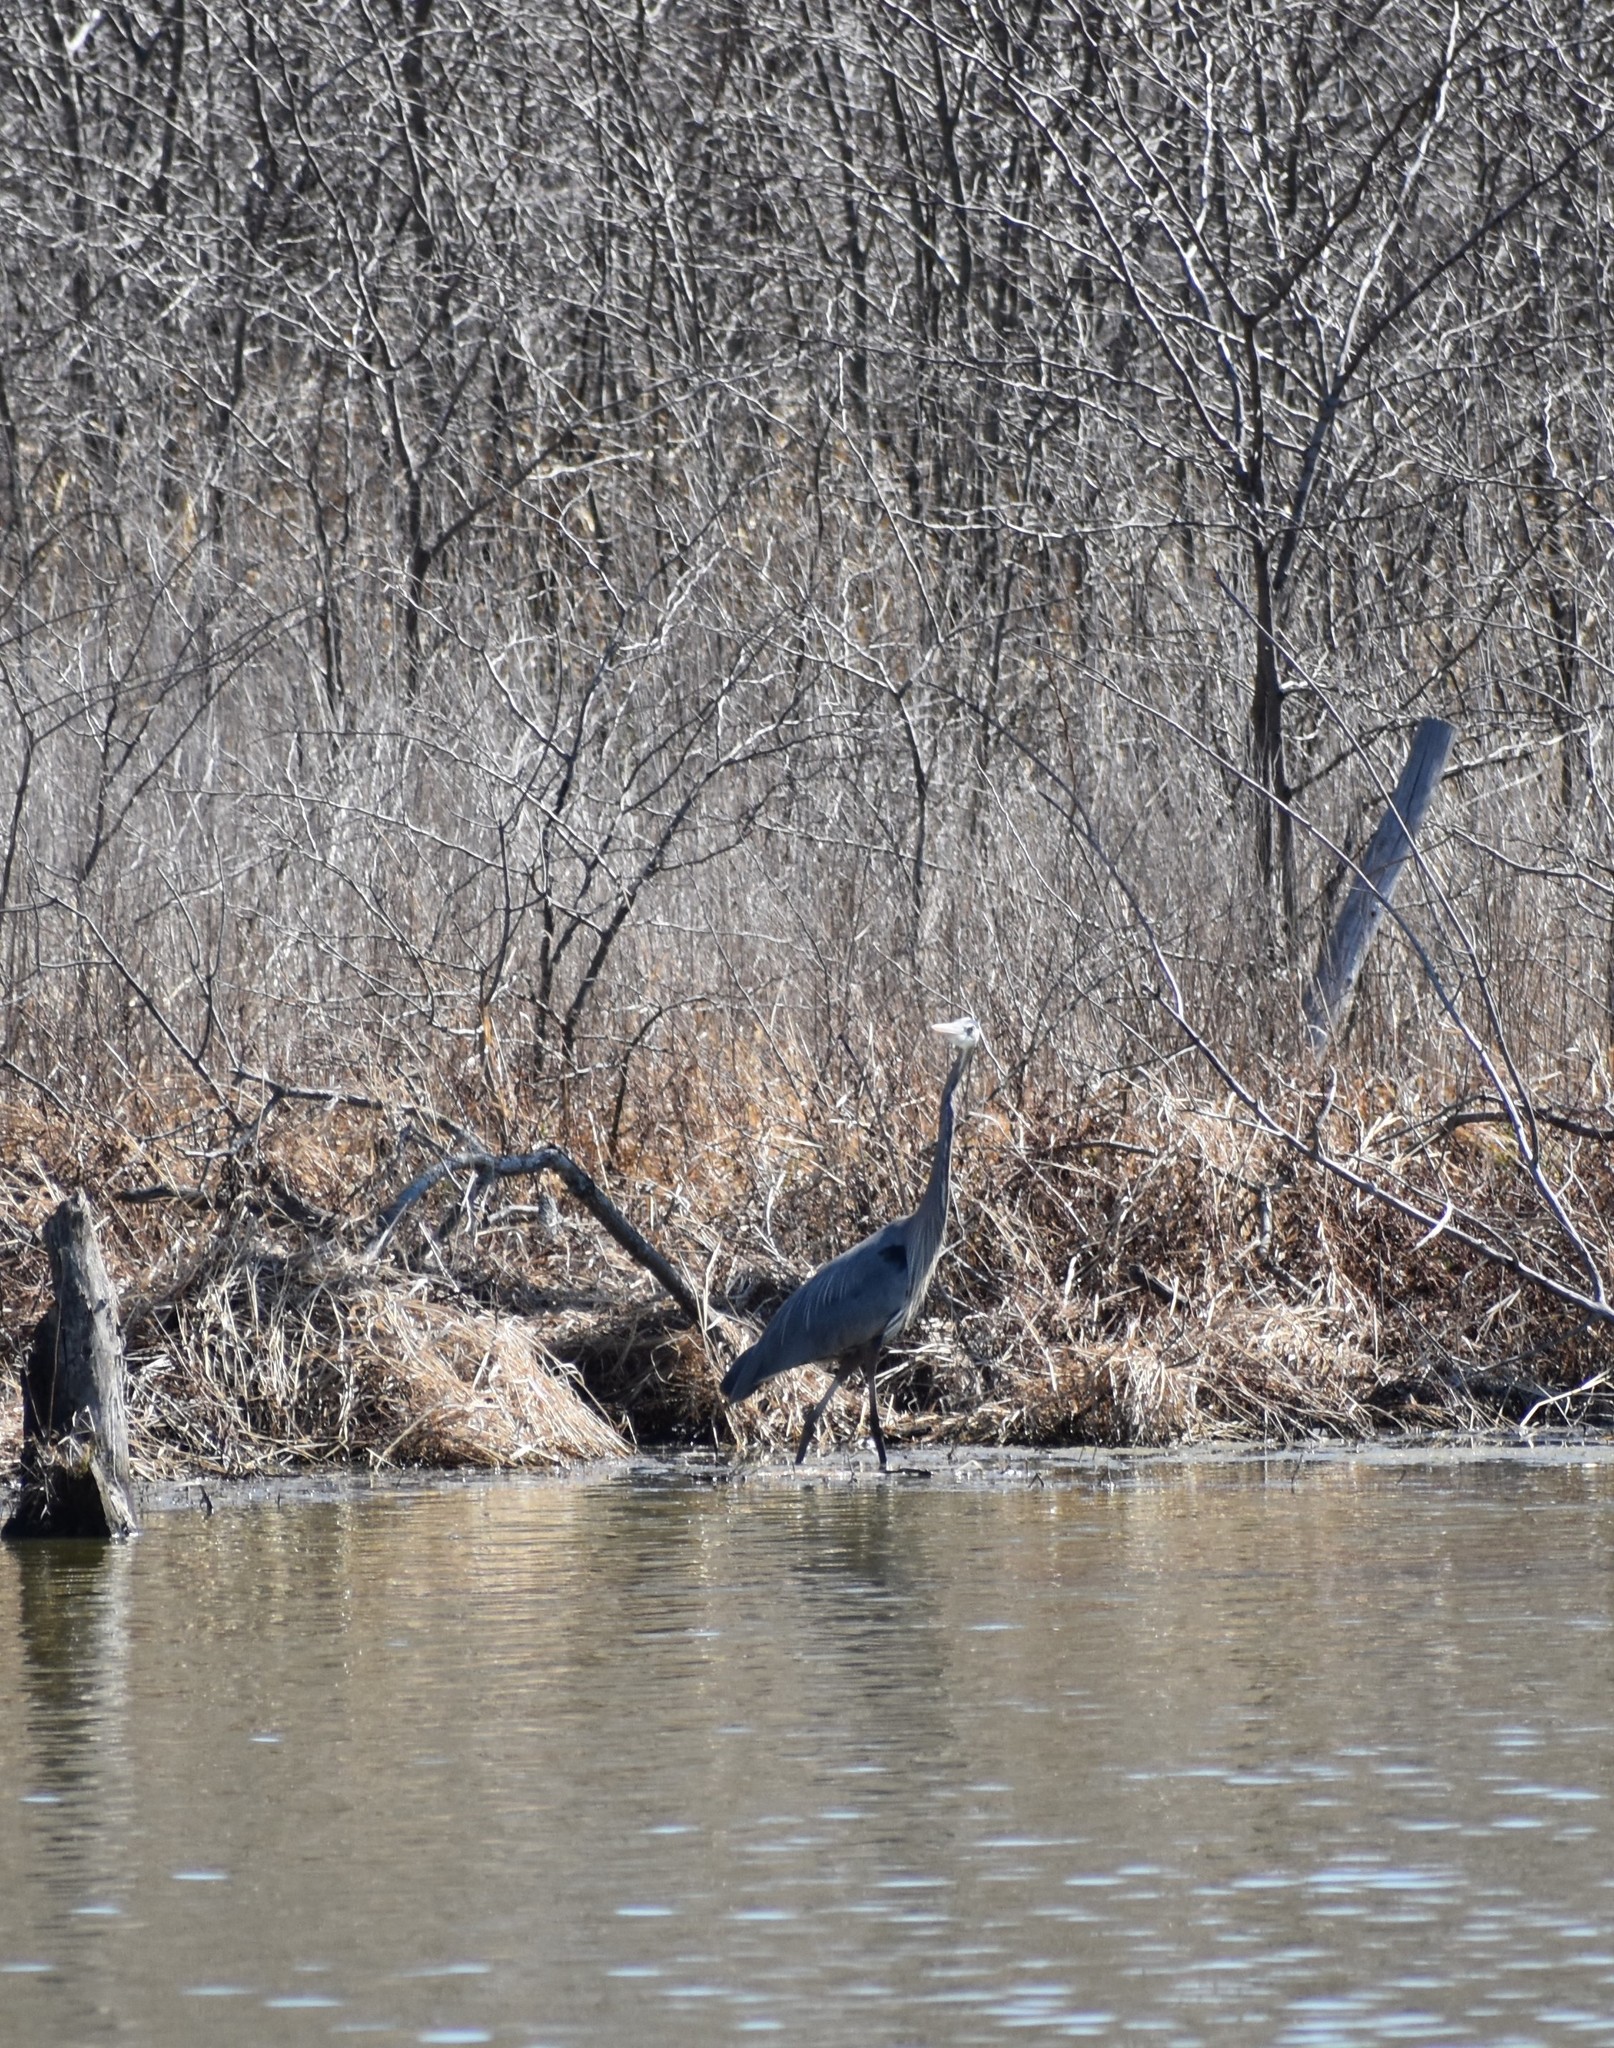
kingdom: Animalia
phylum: Chordata
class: Aves
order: Pelecaniformes
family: Ardeidae
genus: Ardea
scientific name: Ardea herodias
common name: Great blue heron
